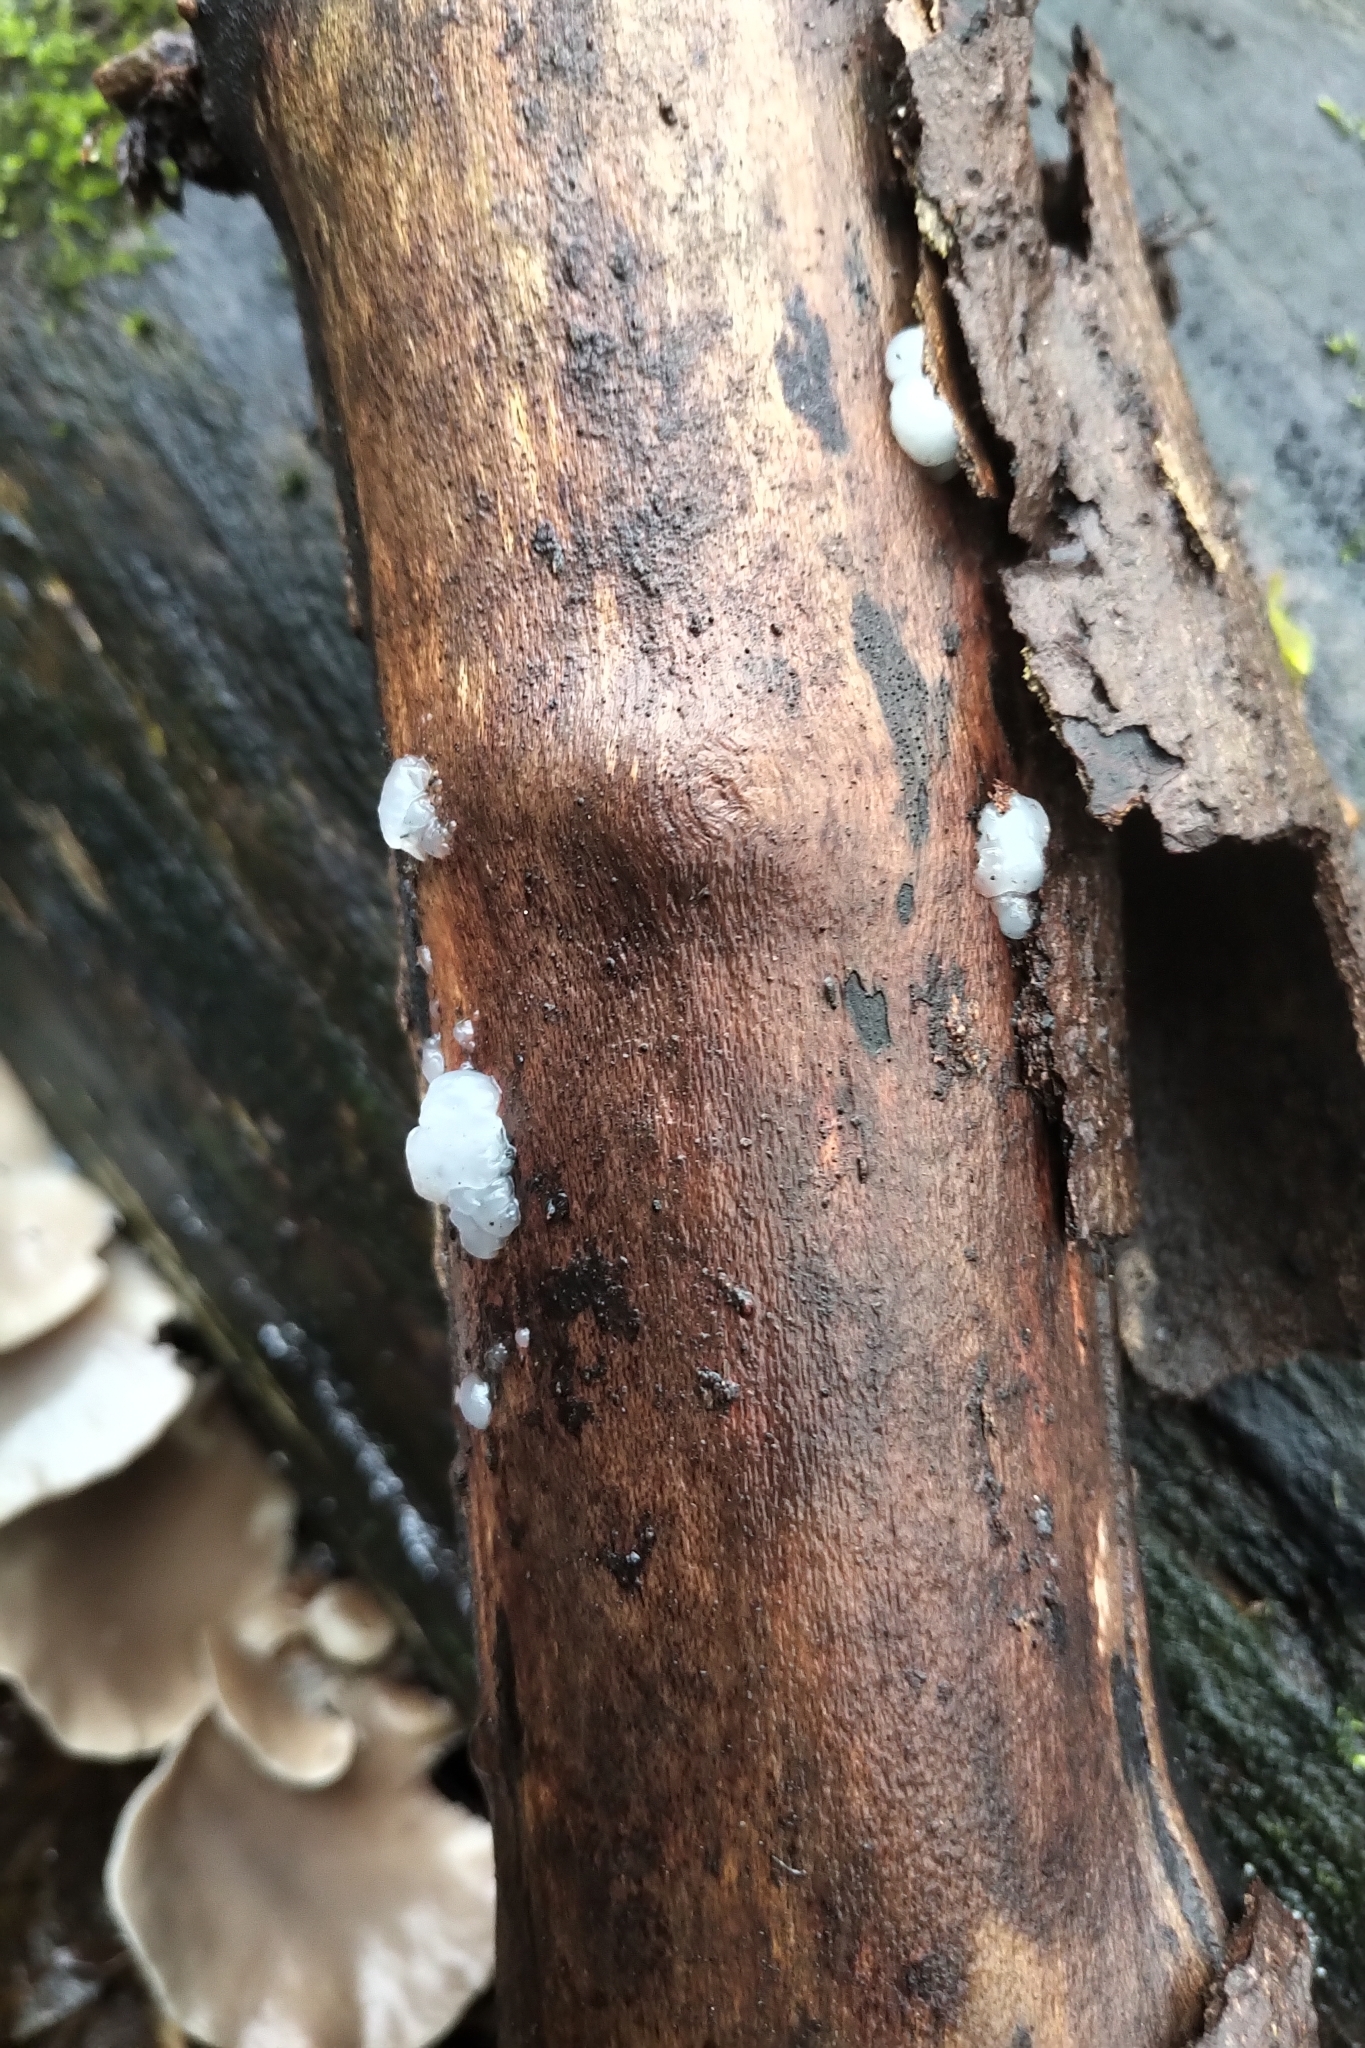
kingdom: Fungi
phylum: Basidiomycota
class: Agaricomycetes
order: Auriculariales
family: Hyaloriaceae
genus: Myxarium
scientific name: Myxarium nucleatum
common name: Crystal brain fungus
